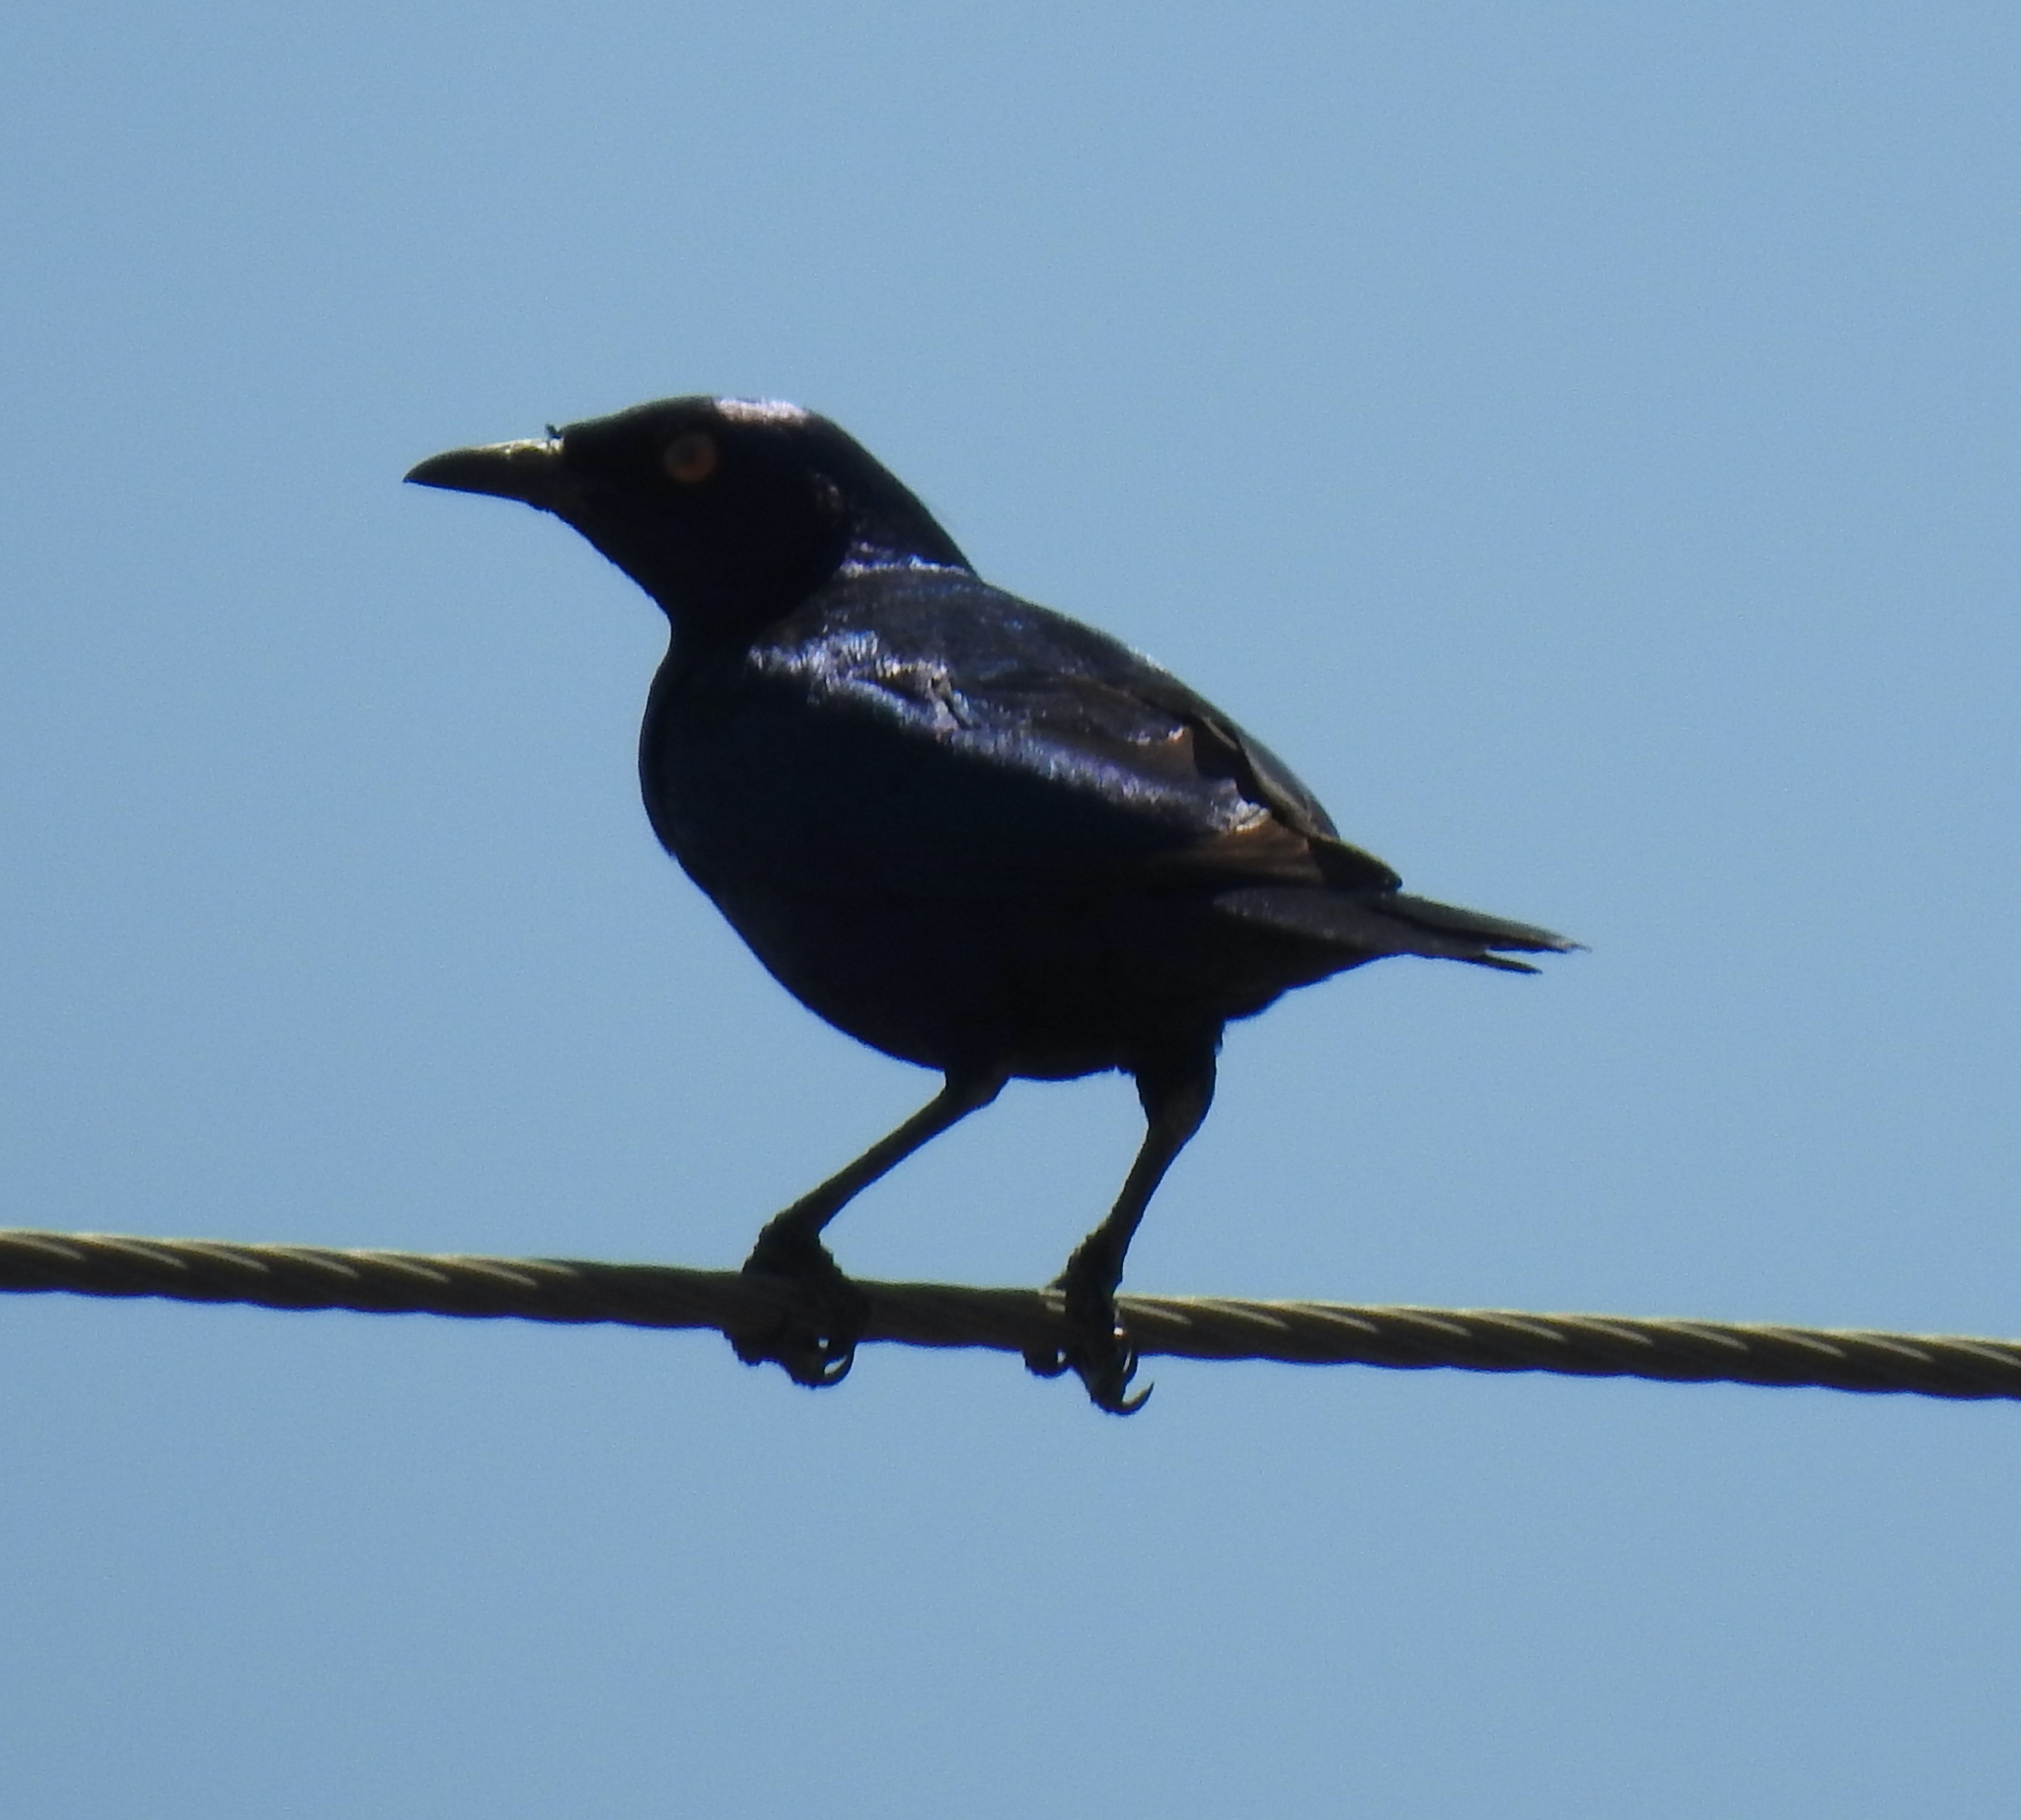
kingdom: Animalia
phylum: Chordata
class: Aves
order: Passeriformes
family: Sturnidae
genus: Lamprotornis
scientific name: Lamprotornis nitens
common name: Cape starling
